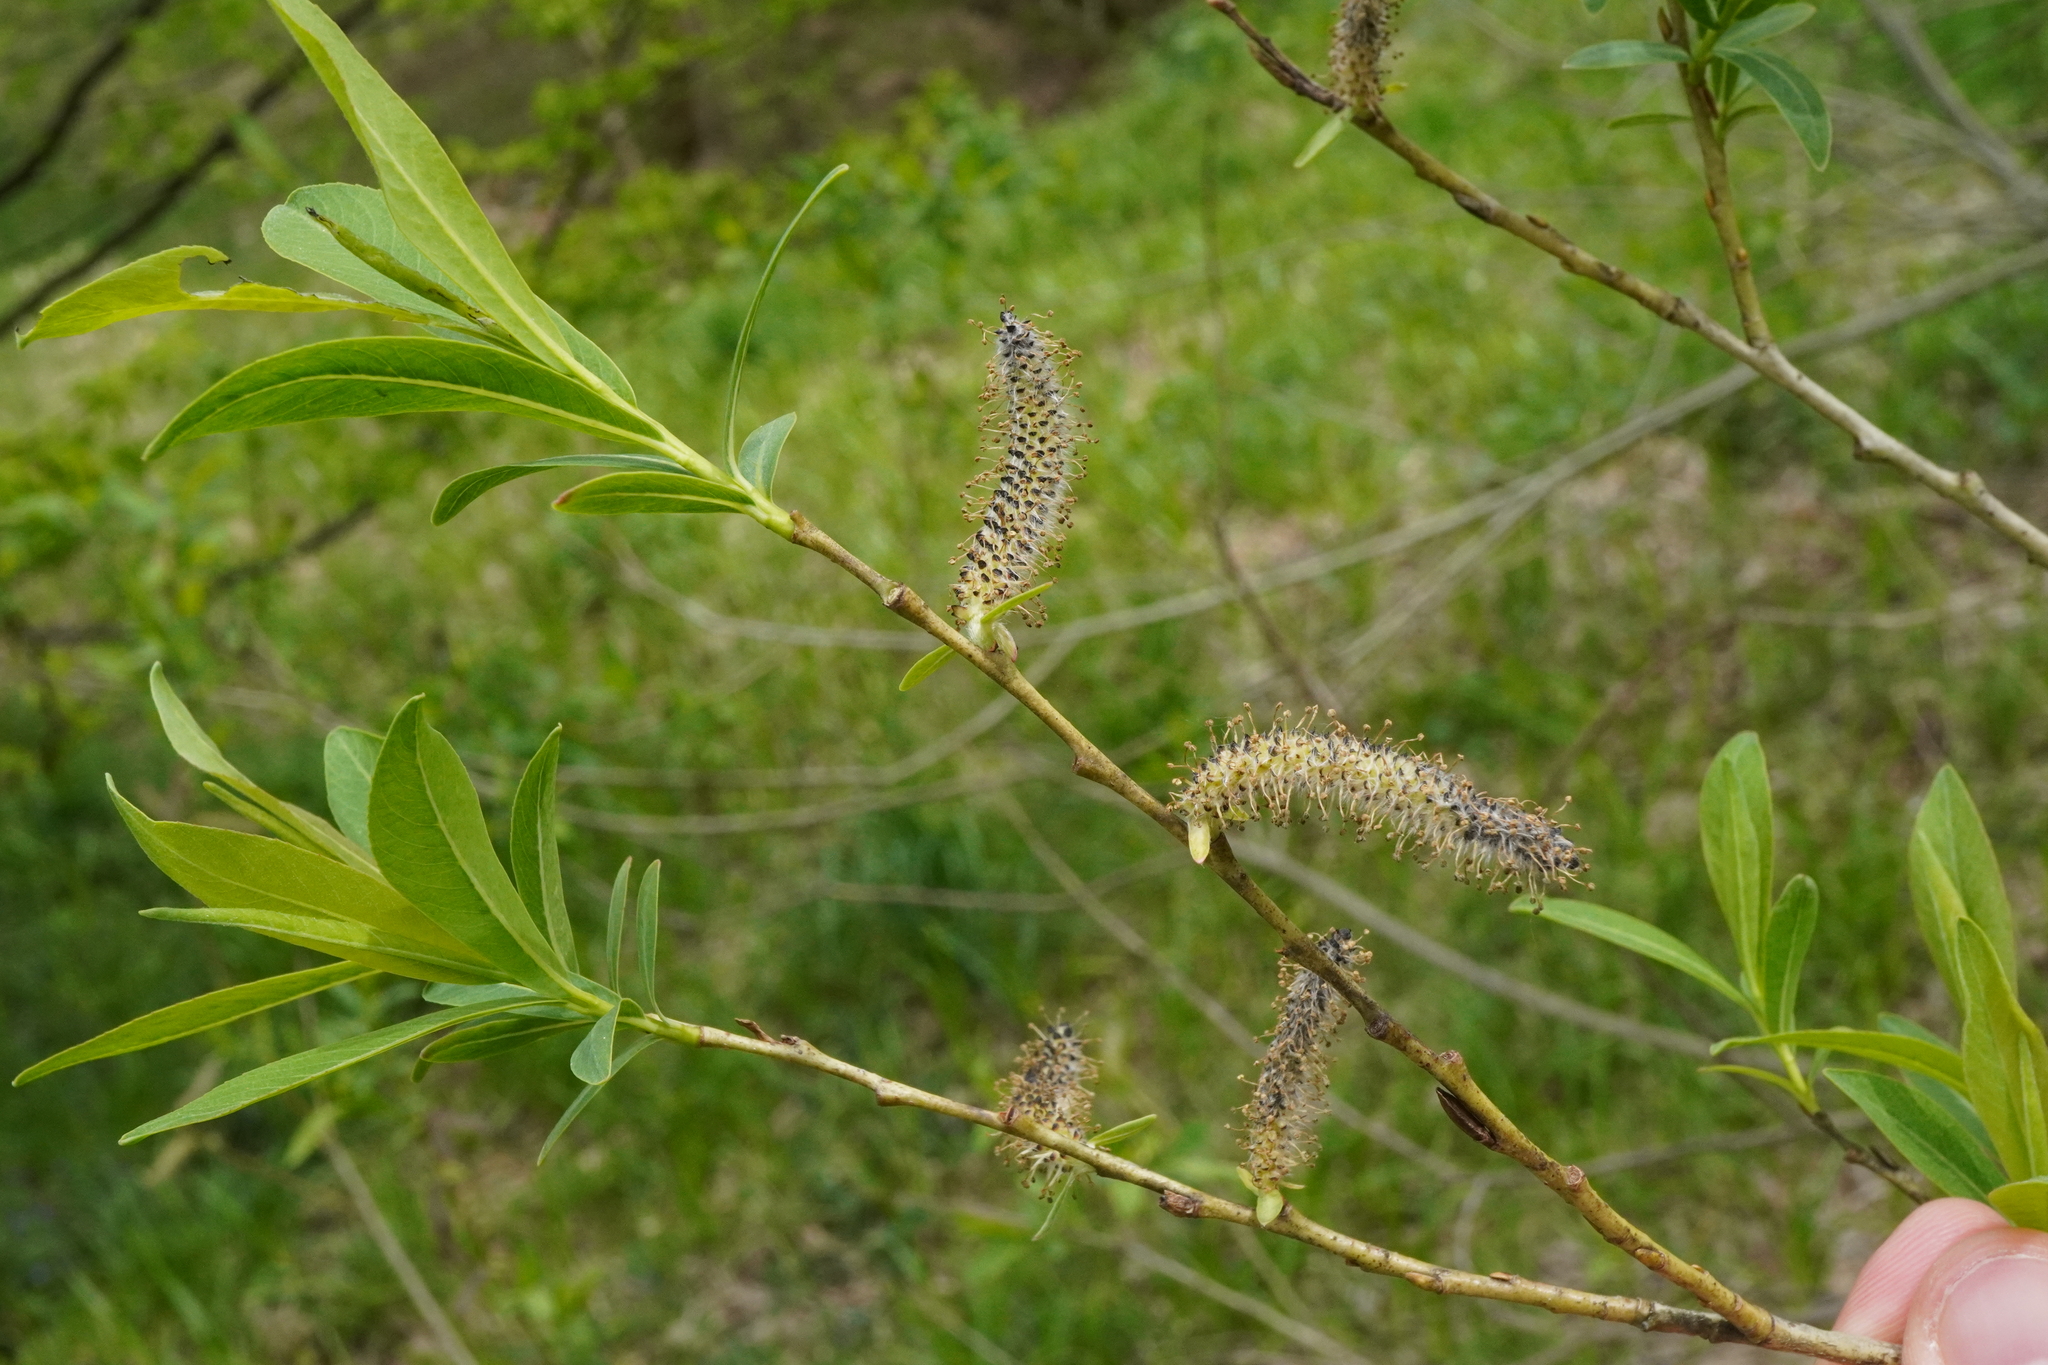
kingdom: Plantae
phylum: Tracheophyta
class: Magnoliopsida
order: Malpighiales
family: Salicaceae
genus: Salix
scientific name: Salix purpurea
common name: Purple willow
